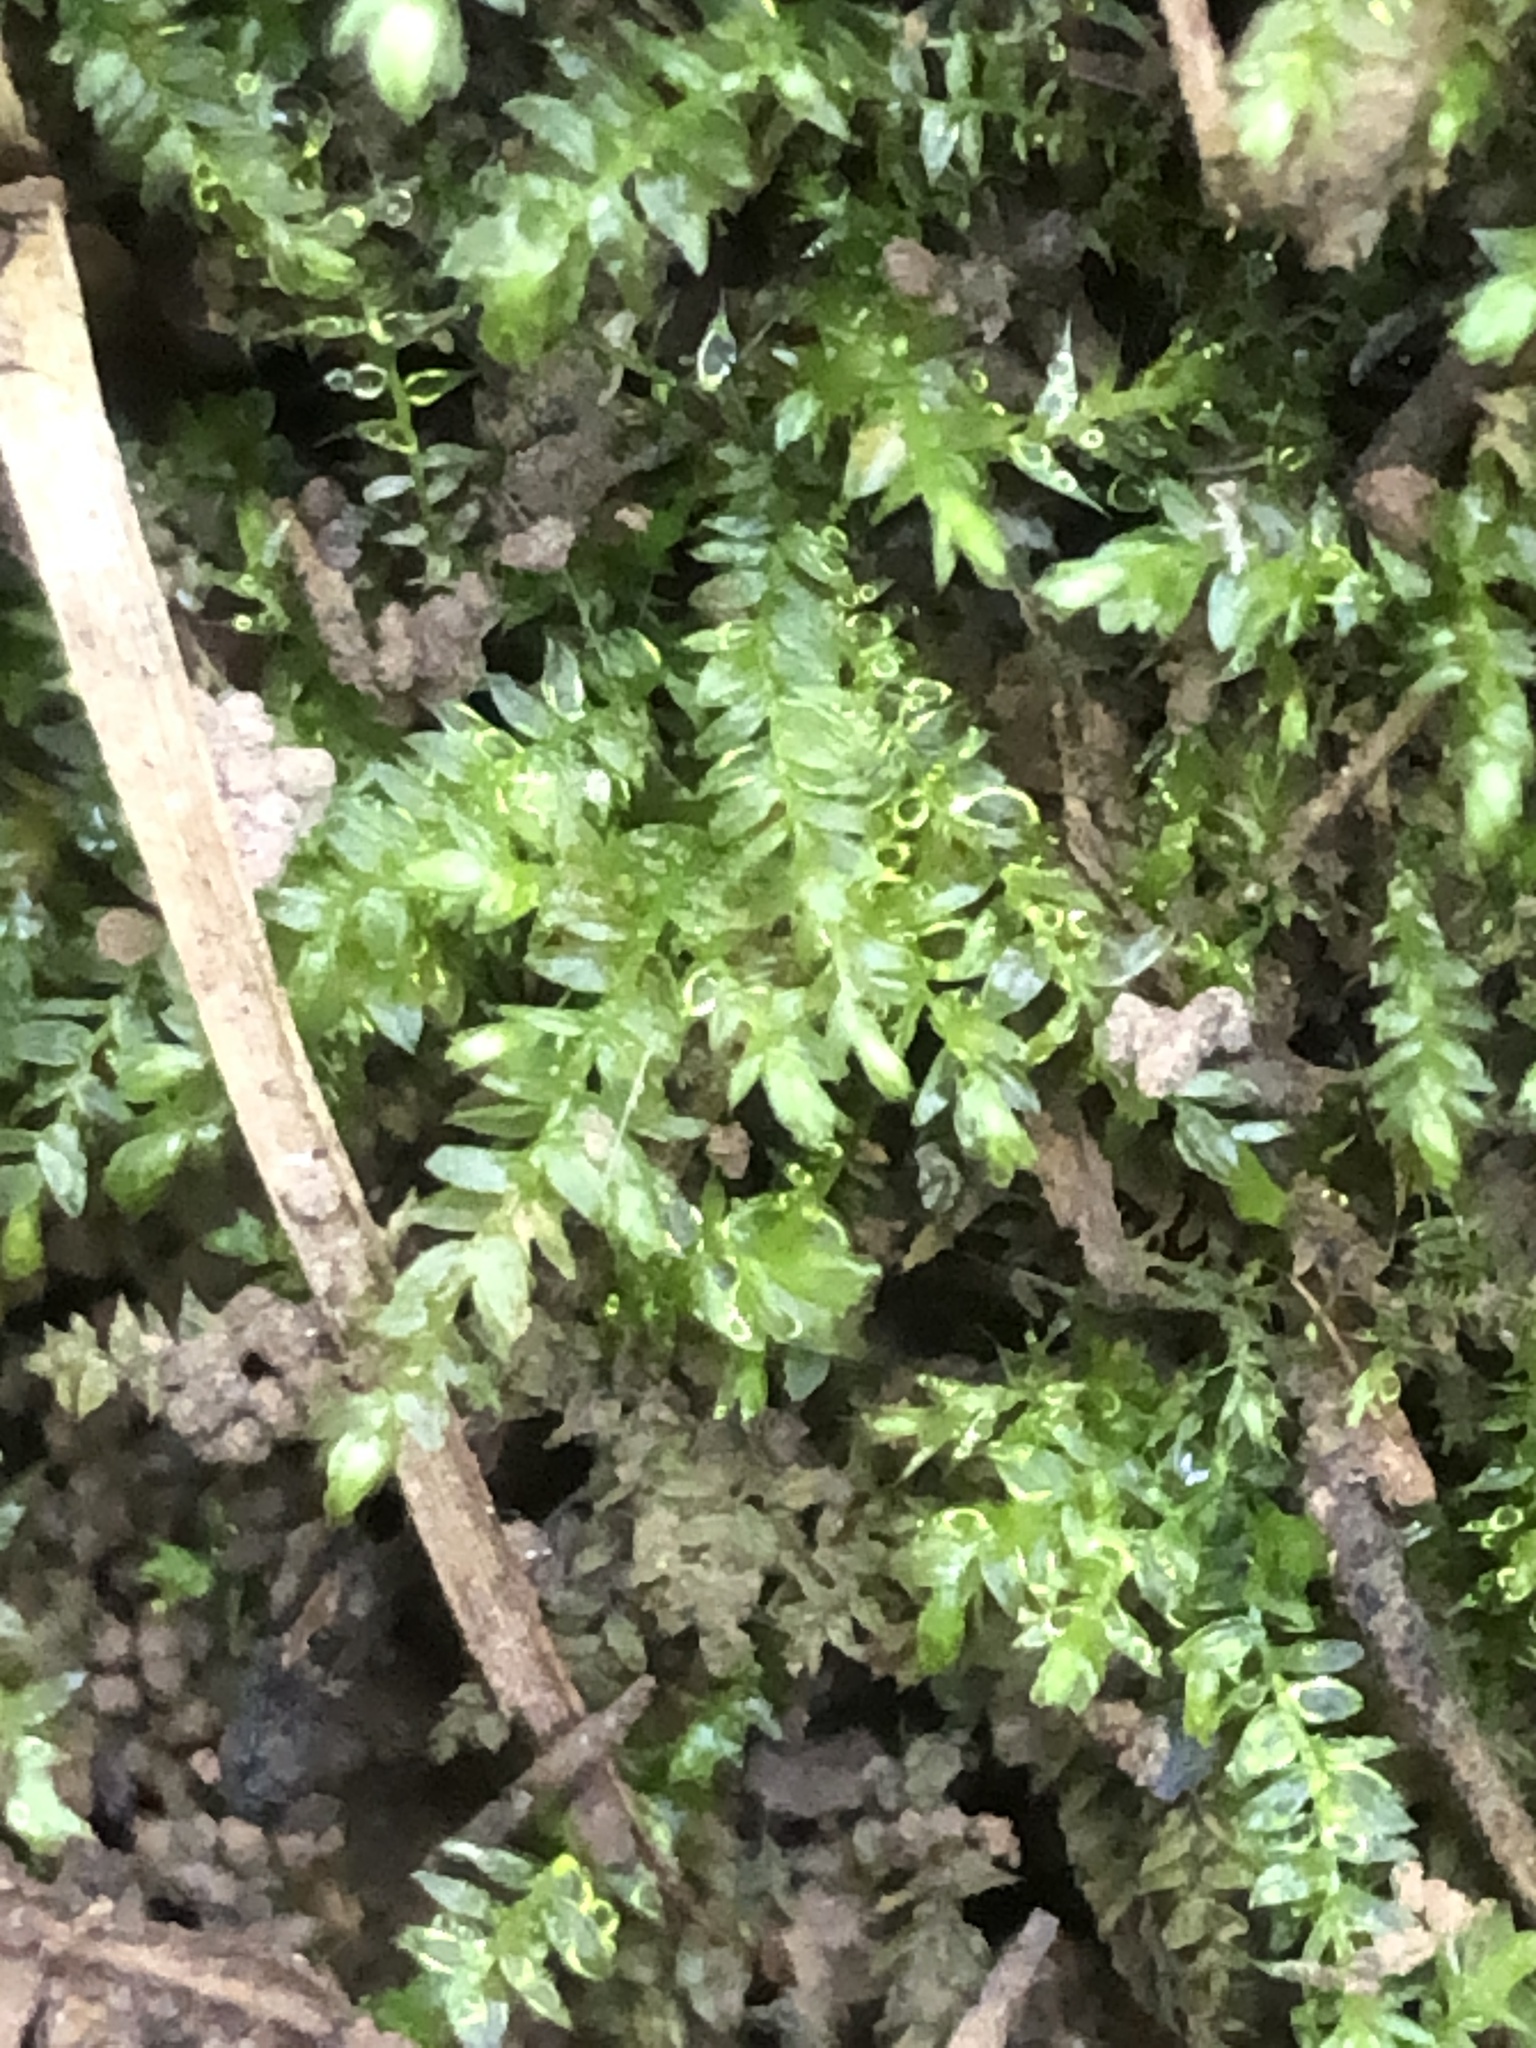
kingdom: Plantae
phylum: Bryophyta
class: Bryopsida
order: Hypnales
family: Brachytheciaceae
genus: Oxyrrhynchium
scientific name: Oxyrrhynchium hians
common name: Spreading beaked moss
